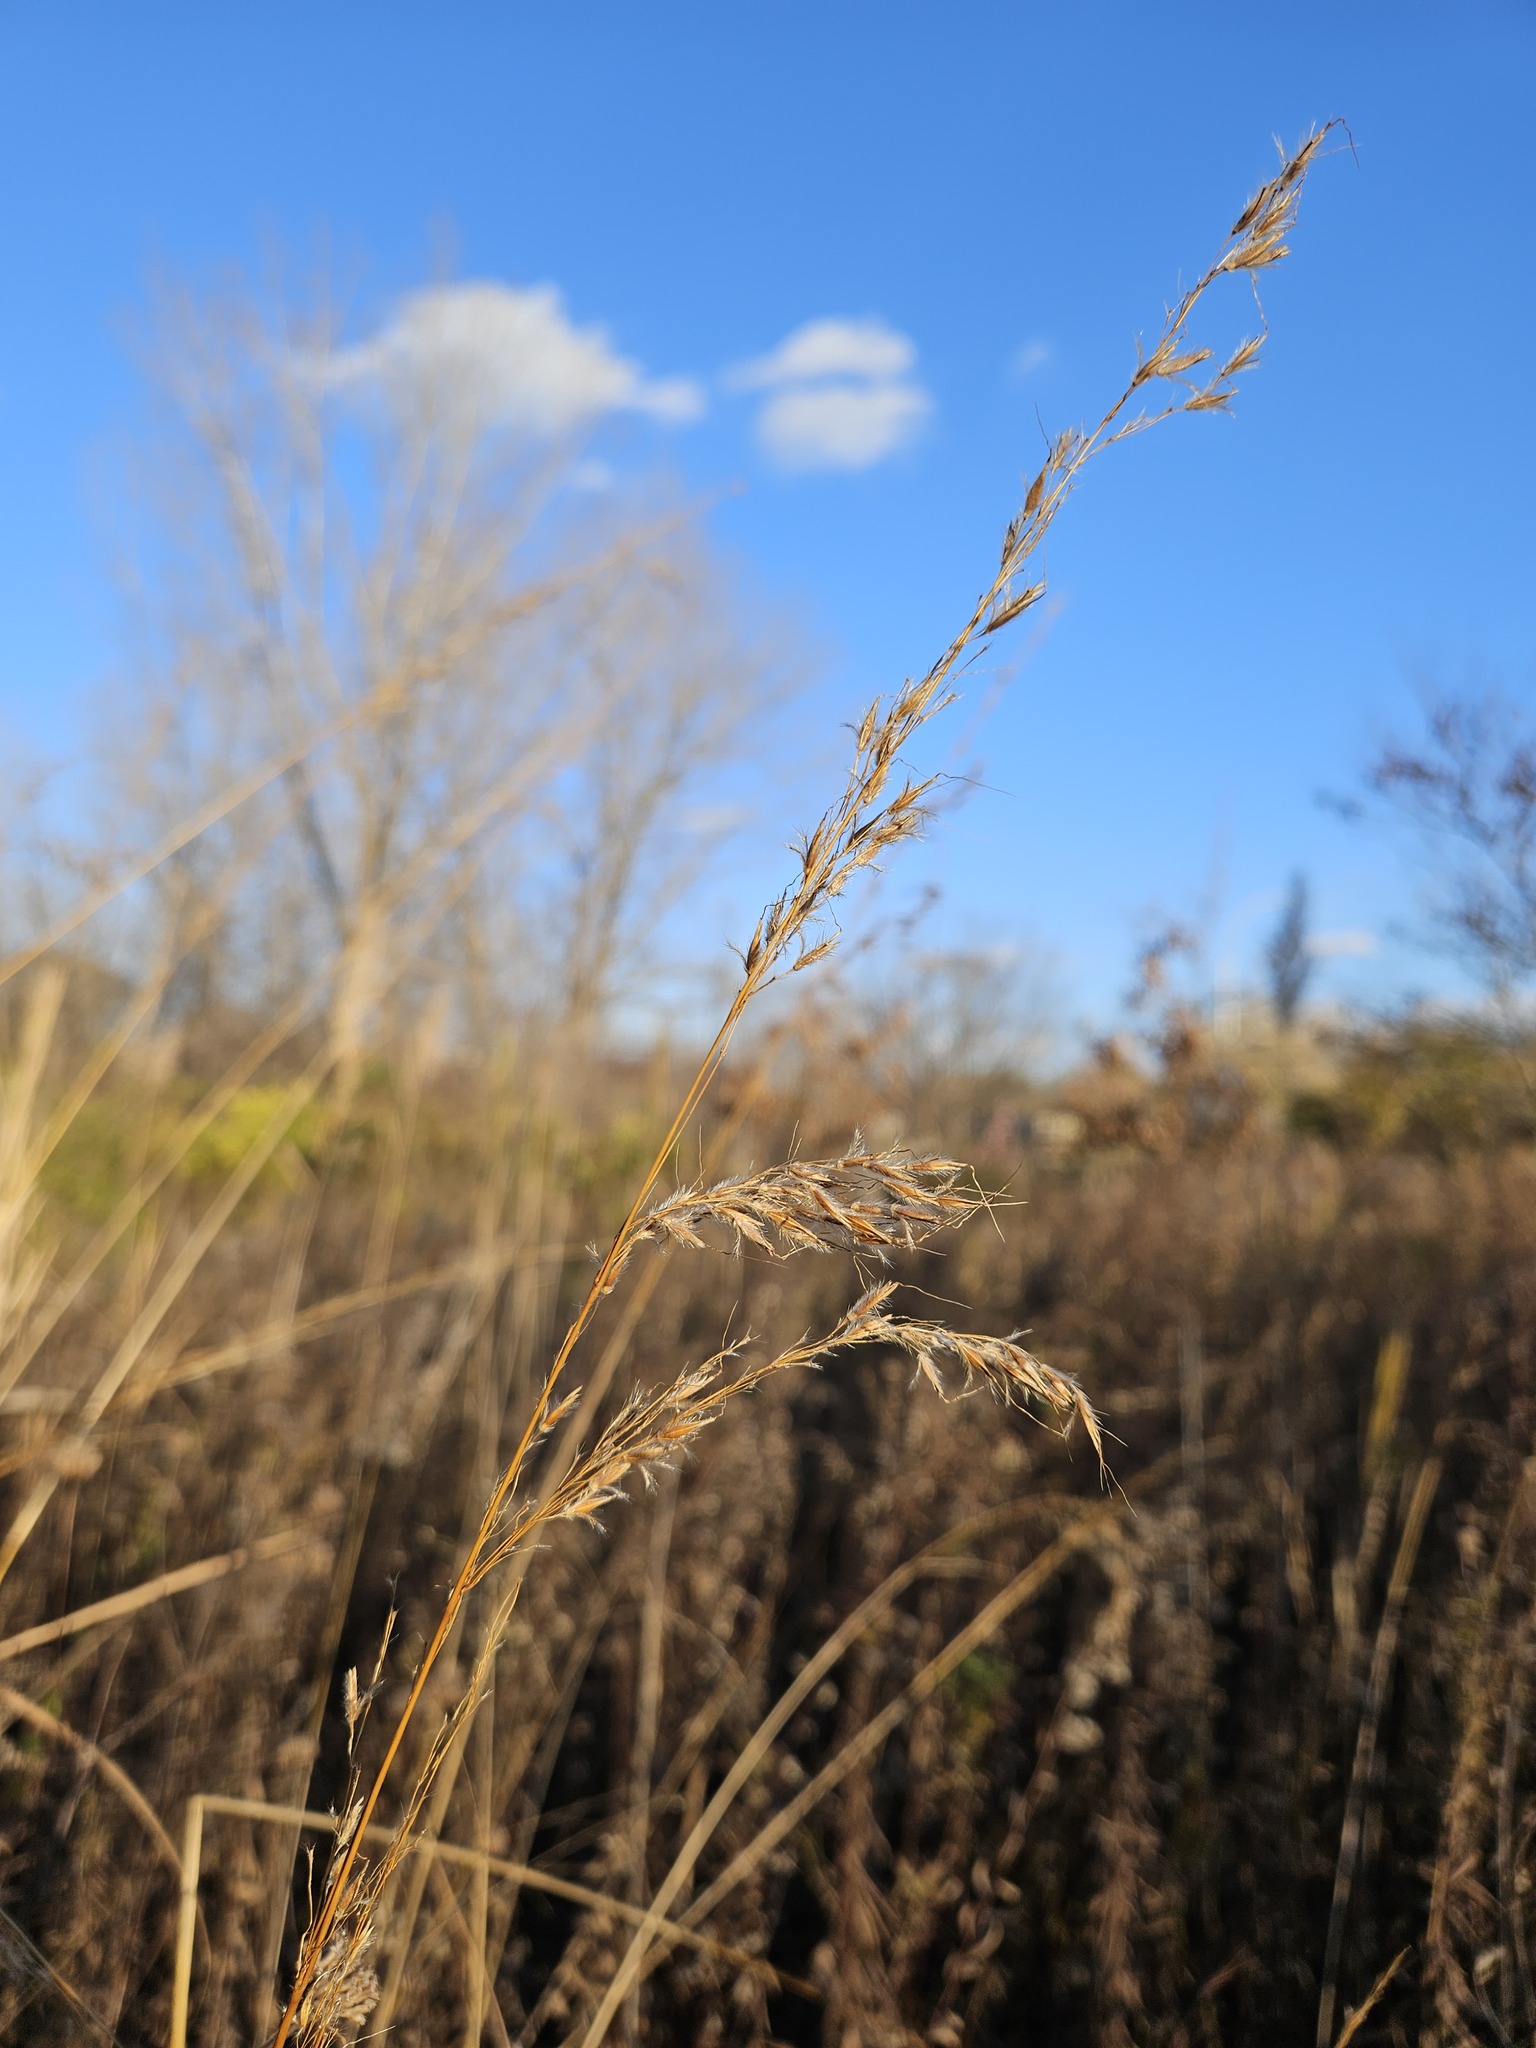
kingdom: Plantae
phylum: Tracheophyta
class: Liliopsida
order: Poales
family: Poaceae
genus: Sorghastrum
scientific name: Sorghastrum nutans
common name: Indian grass
